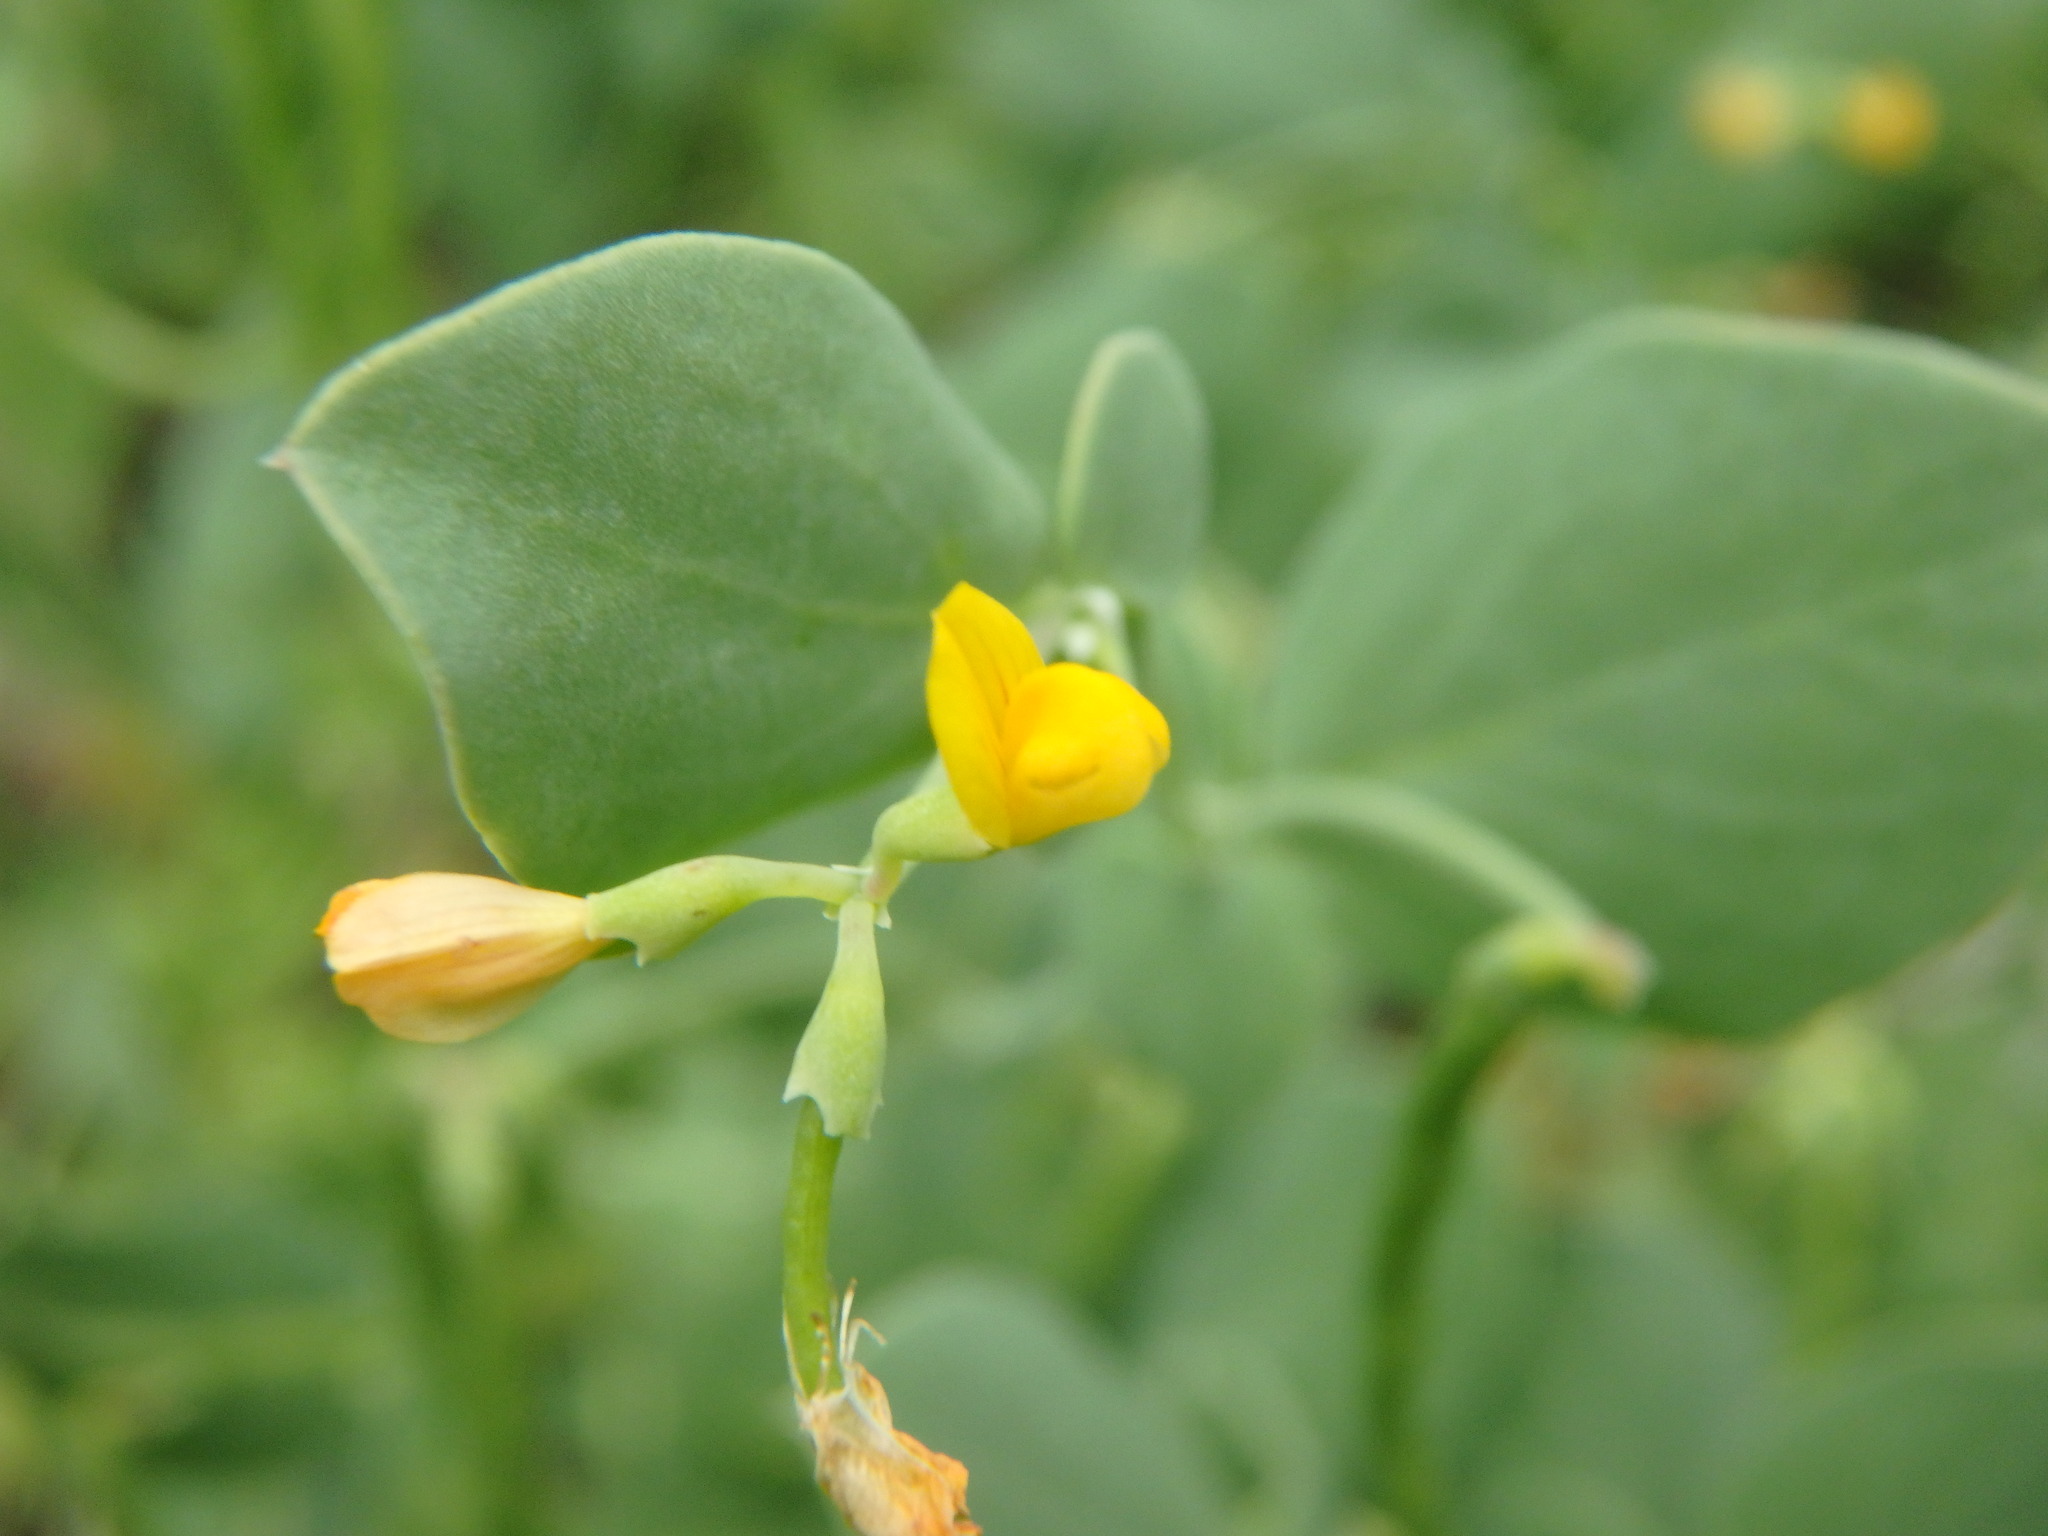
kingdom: Plantae
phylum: Tracheophyta
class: Magnoliopsida
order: Fabales
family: Fabaceae
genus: Coronilla
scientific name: Coronilla scorpioides
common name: Annual scorpion-vetch
